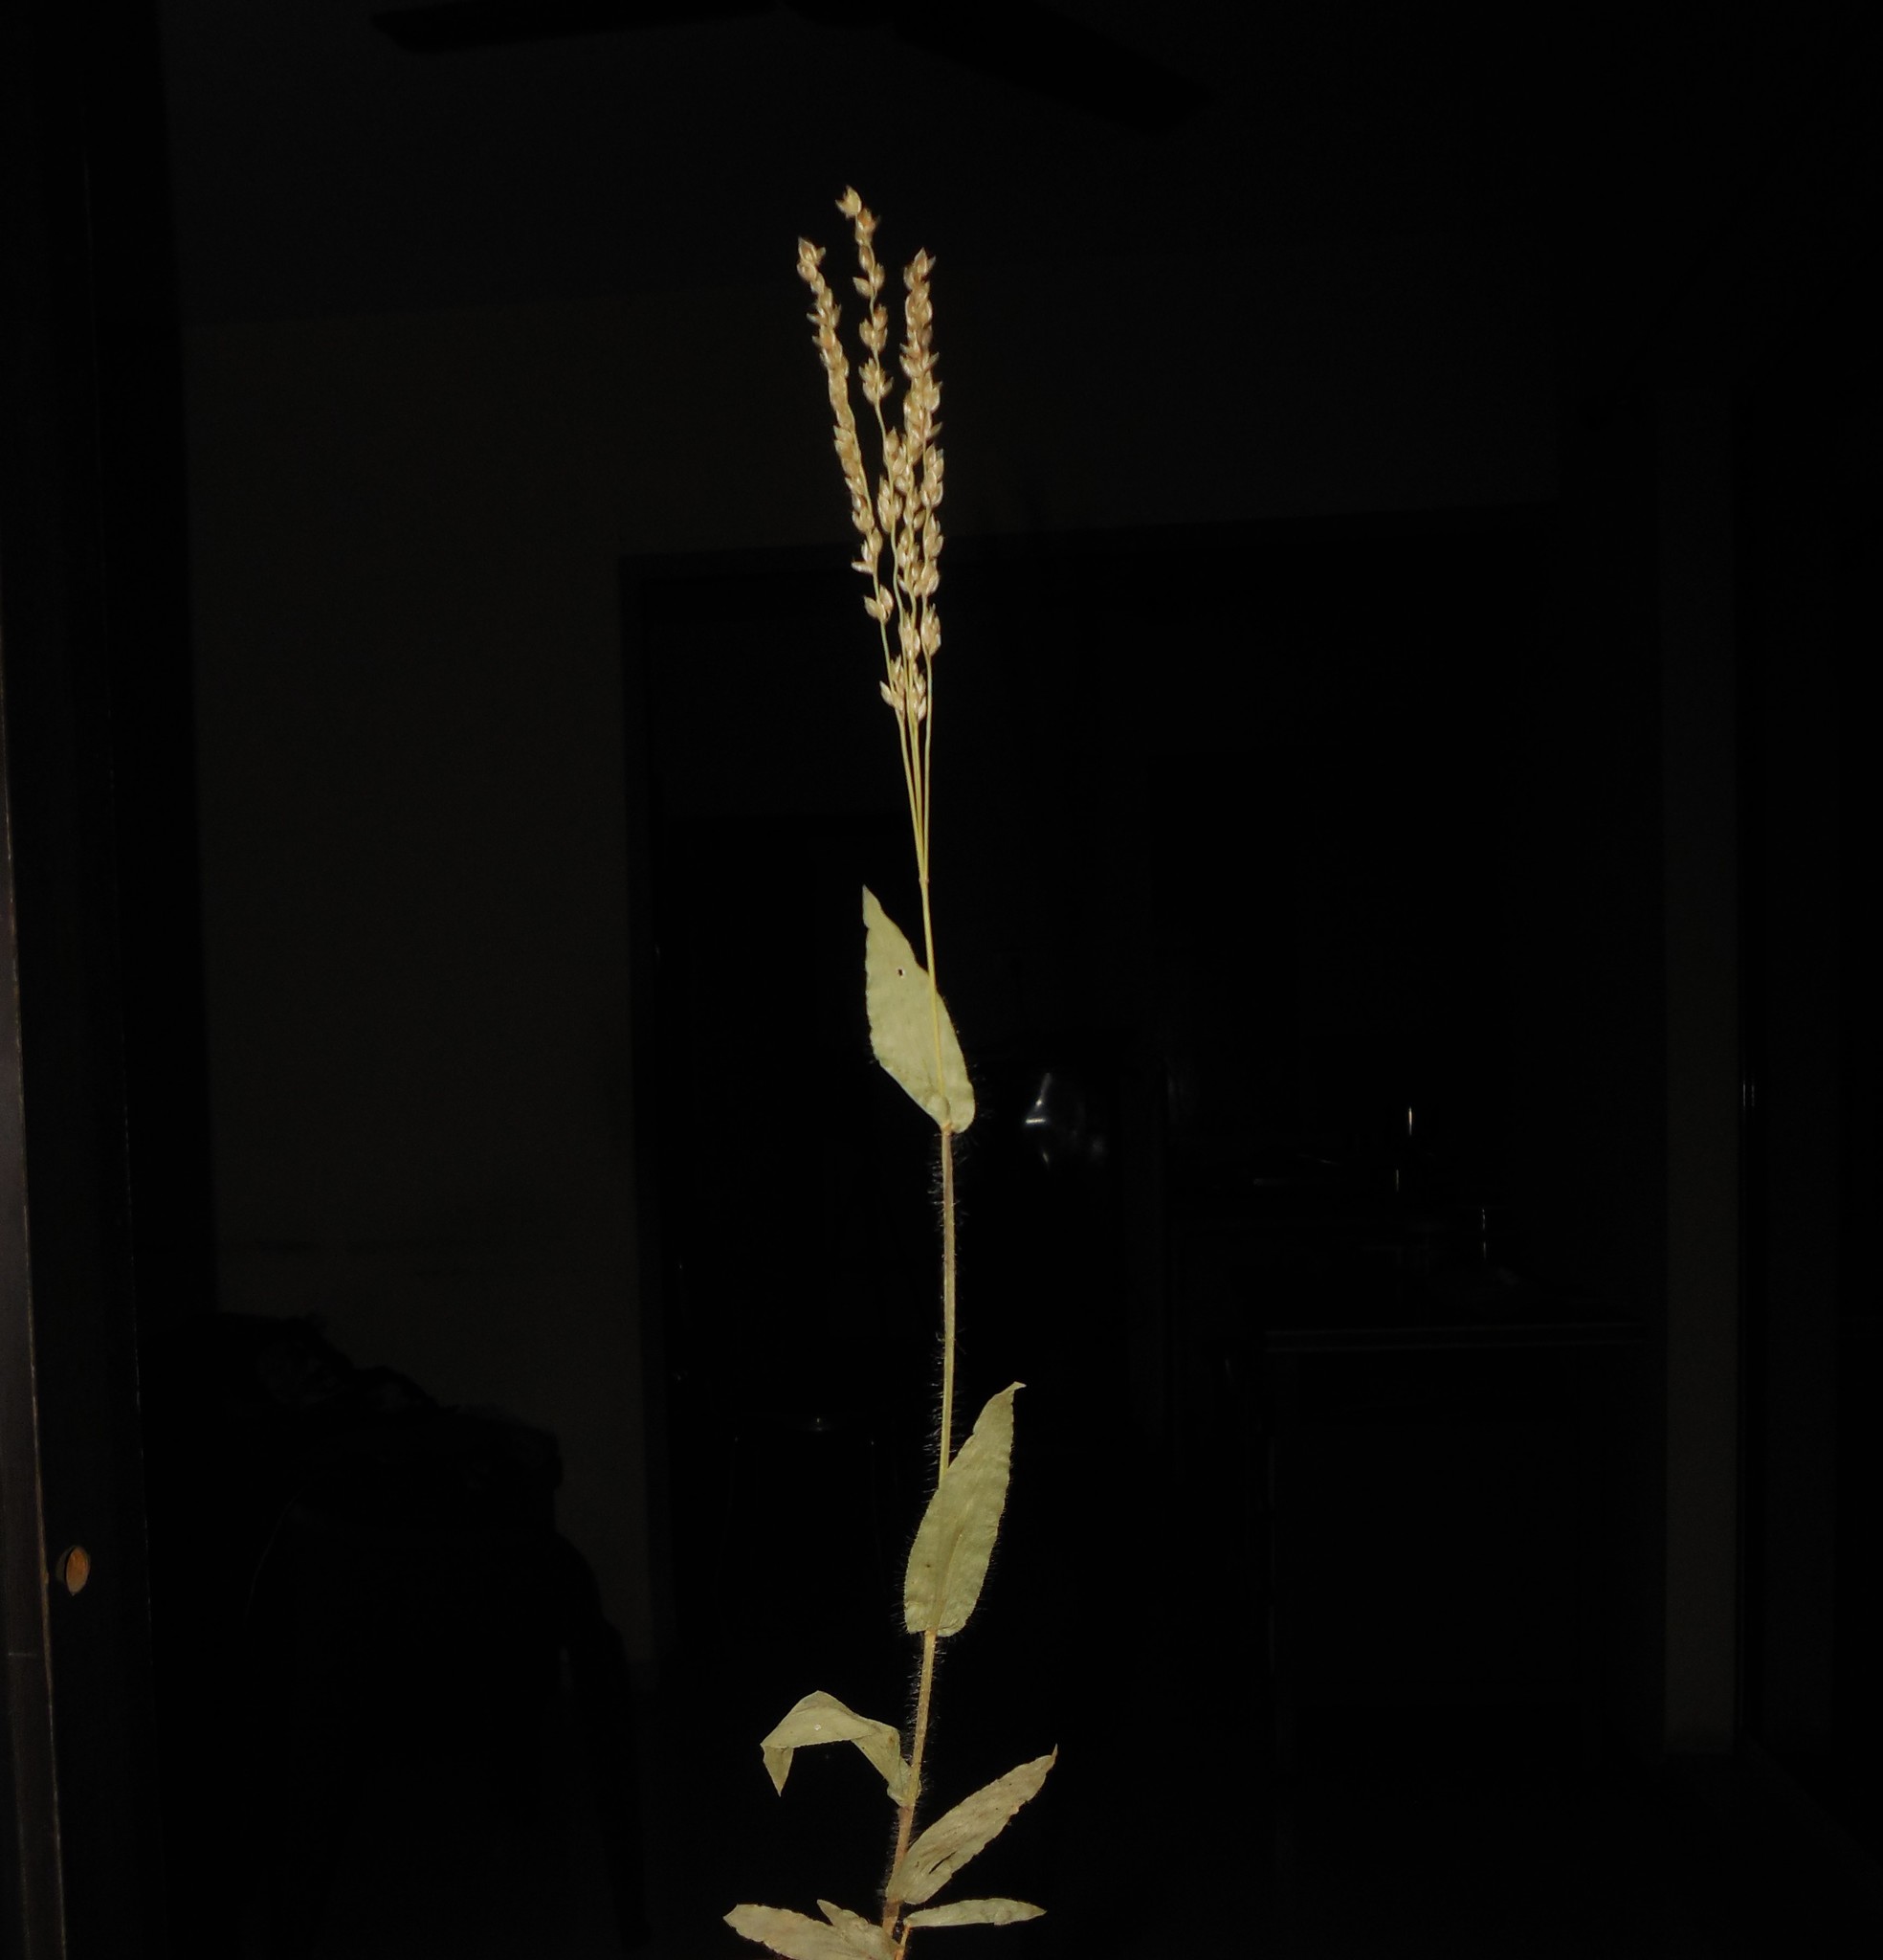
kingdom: Plantae
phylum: Tracheophyta
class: Liliopsida
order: Poales
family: Poaceae
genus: Alloteropsis
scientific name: Alloteropsis cimicina
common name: Summergrass
